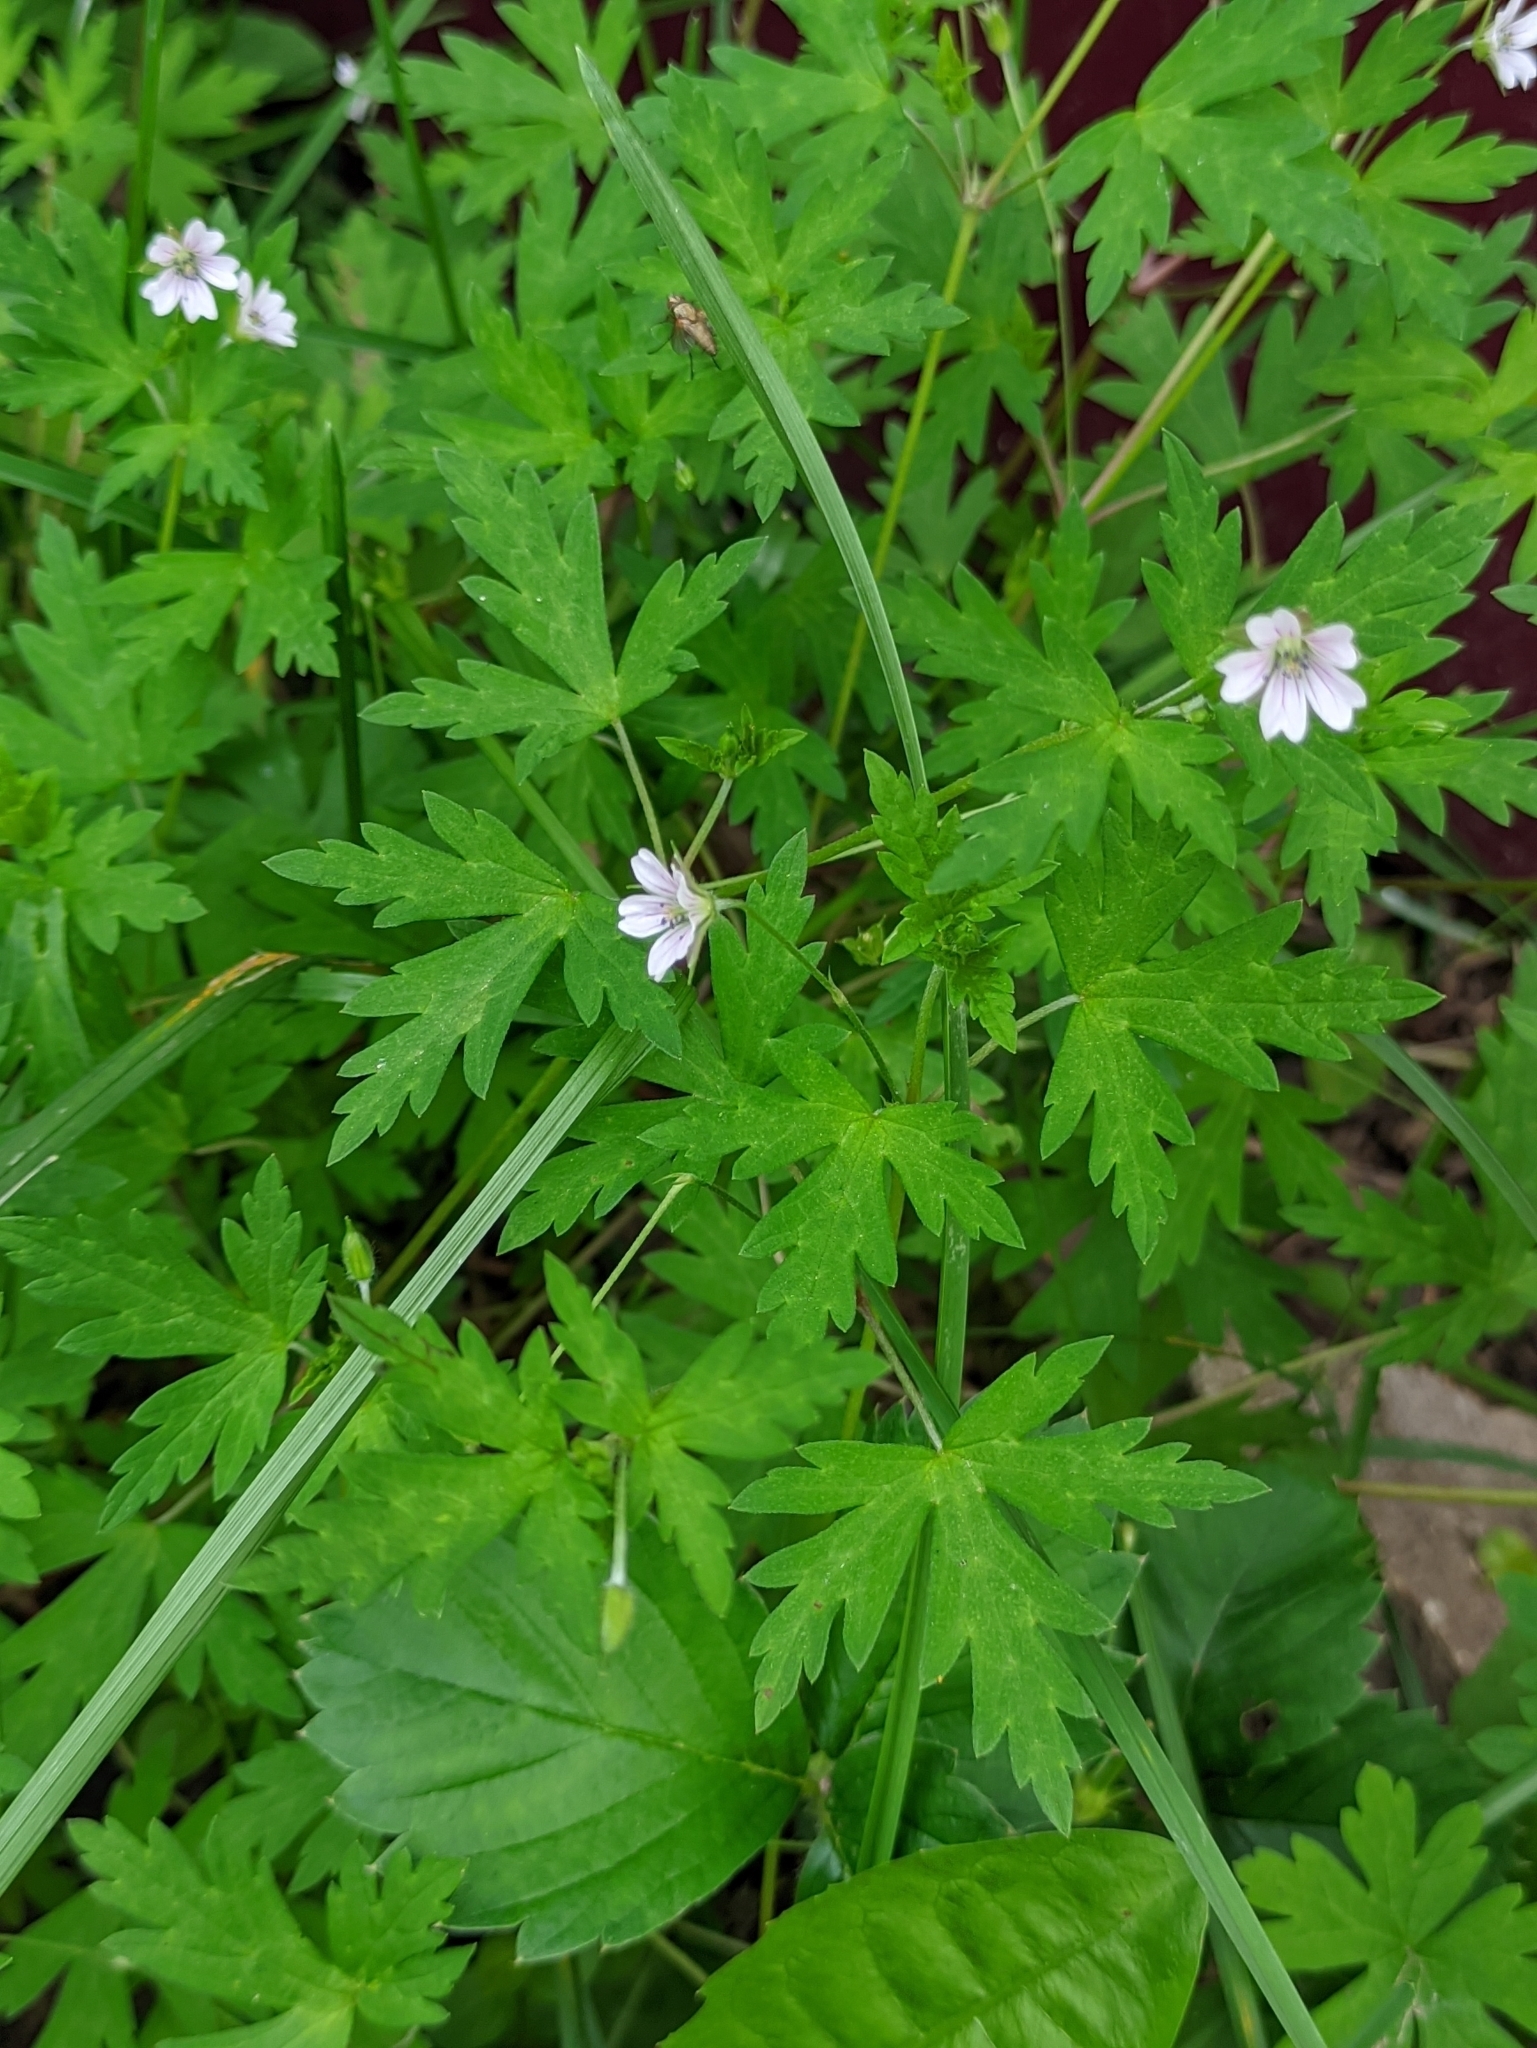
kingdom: Plantae
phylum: Tracheophyta
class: Magnoliopsida
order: Geraniales
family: Geraniaceae
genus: Geranium
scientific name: Geranium sibiricum
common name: Siberian crane's-bill
